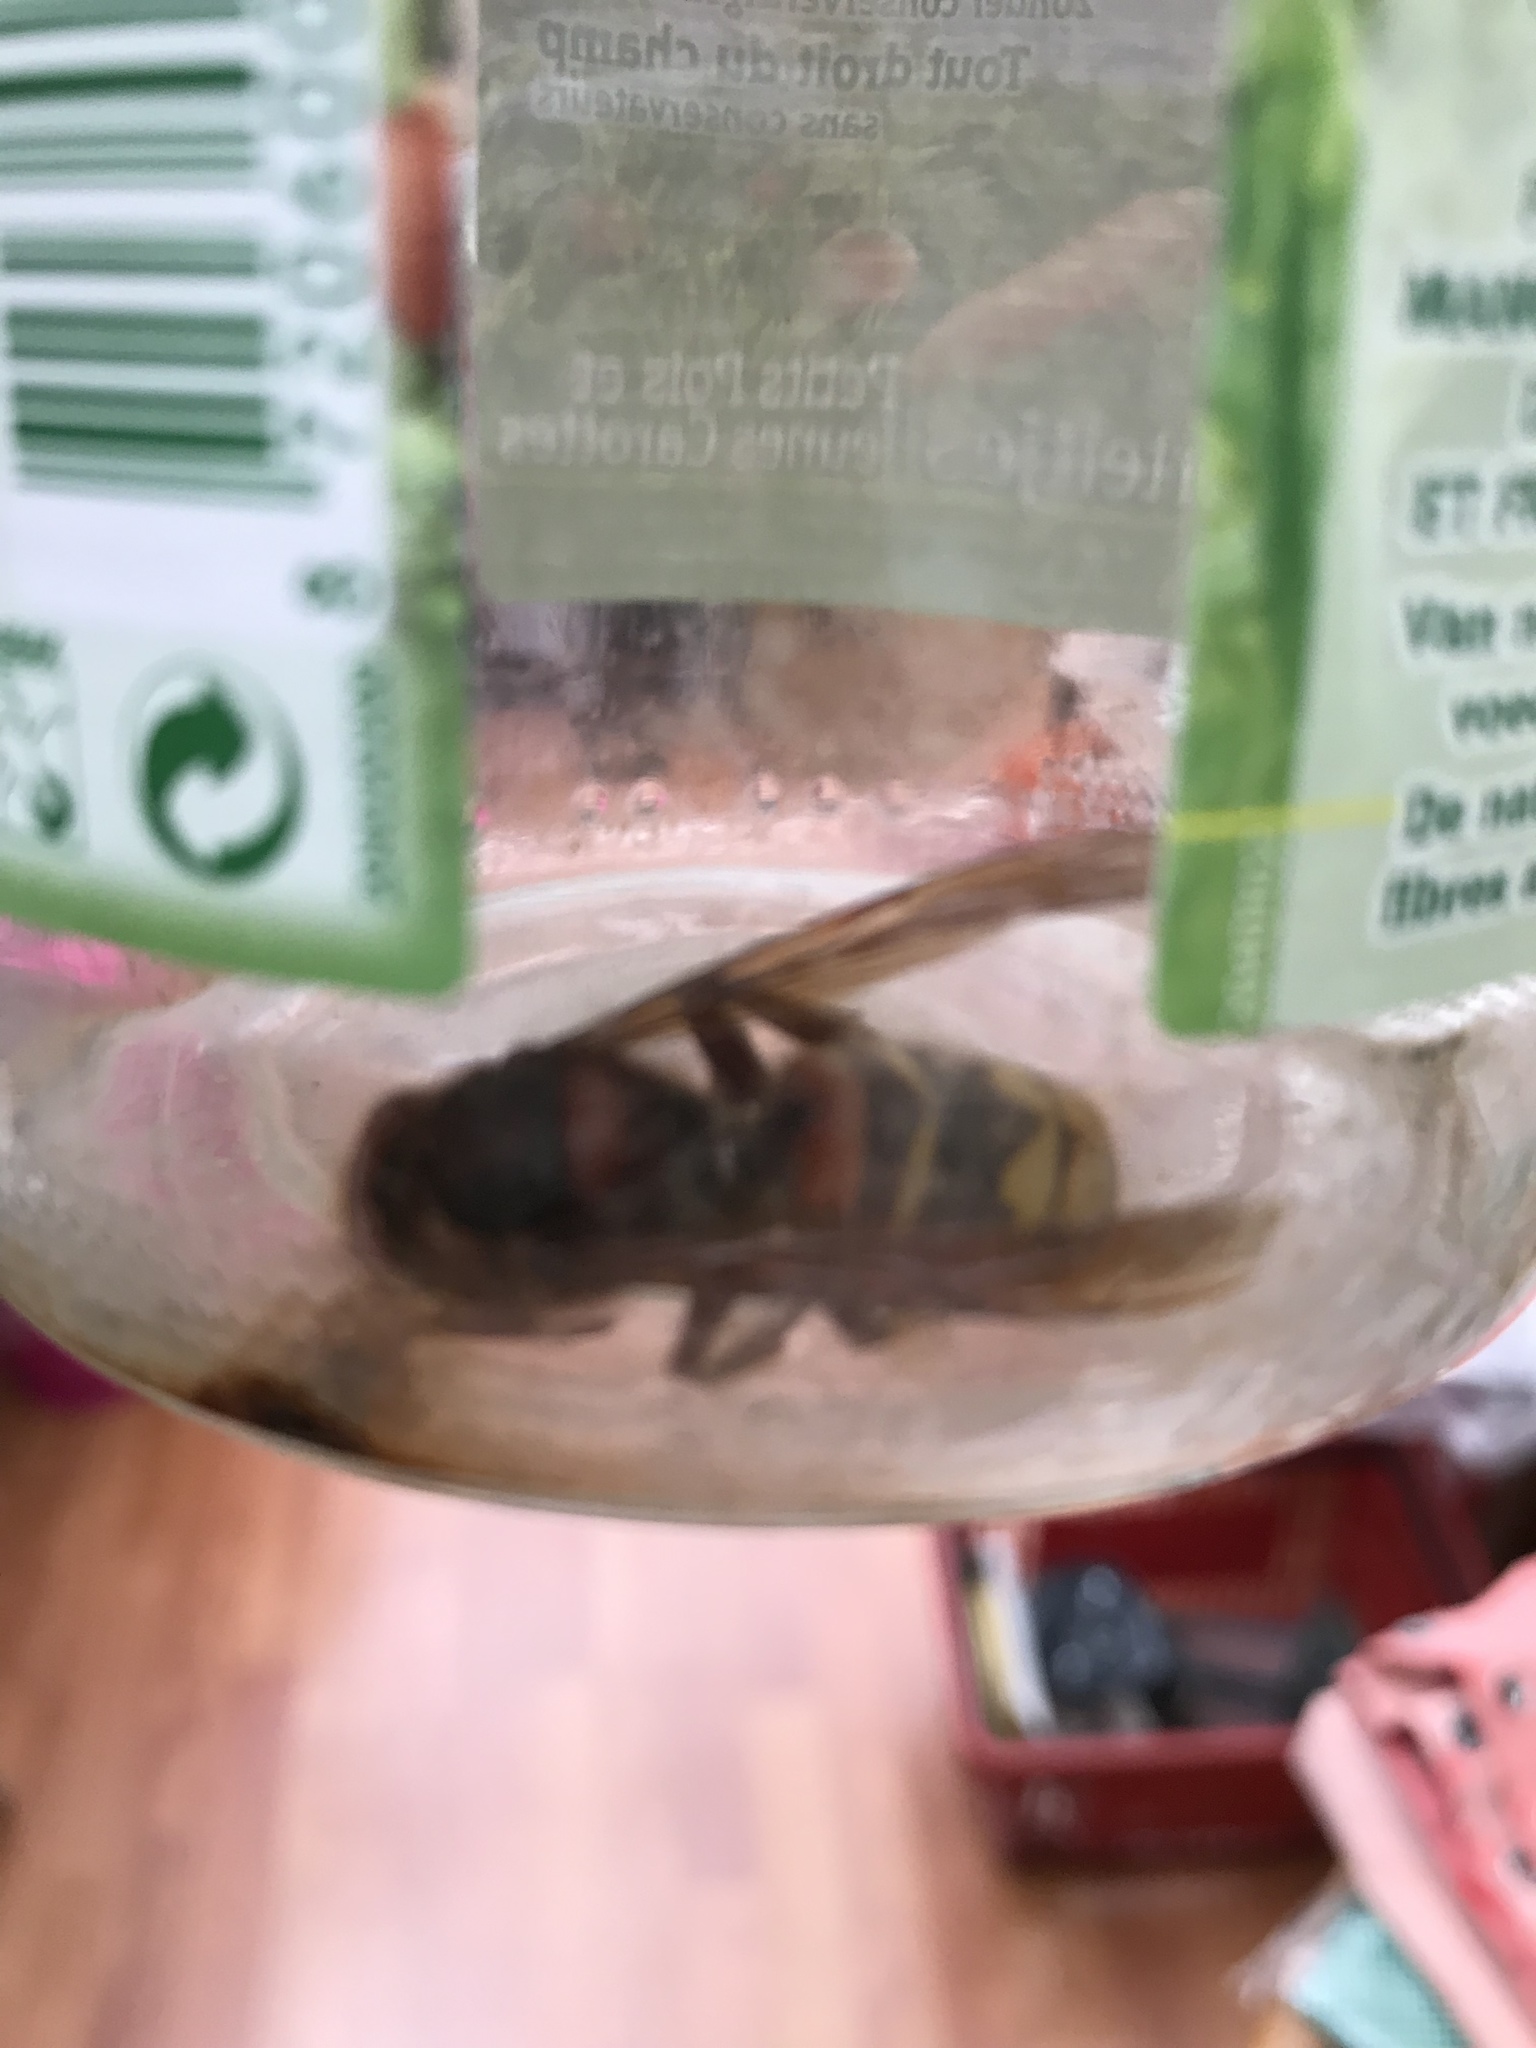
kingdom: Animalia
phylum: Arthropoda
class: Insecta
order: Hymenoptera
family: Vespidae
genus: Vespa
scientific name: Vespa crabro
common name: Hornet
